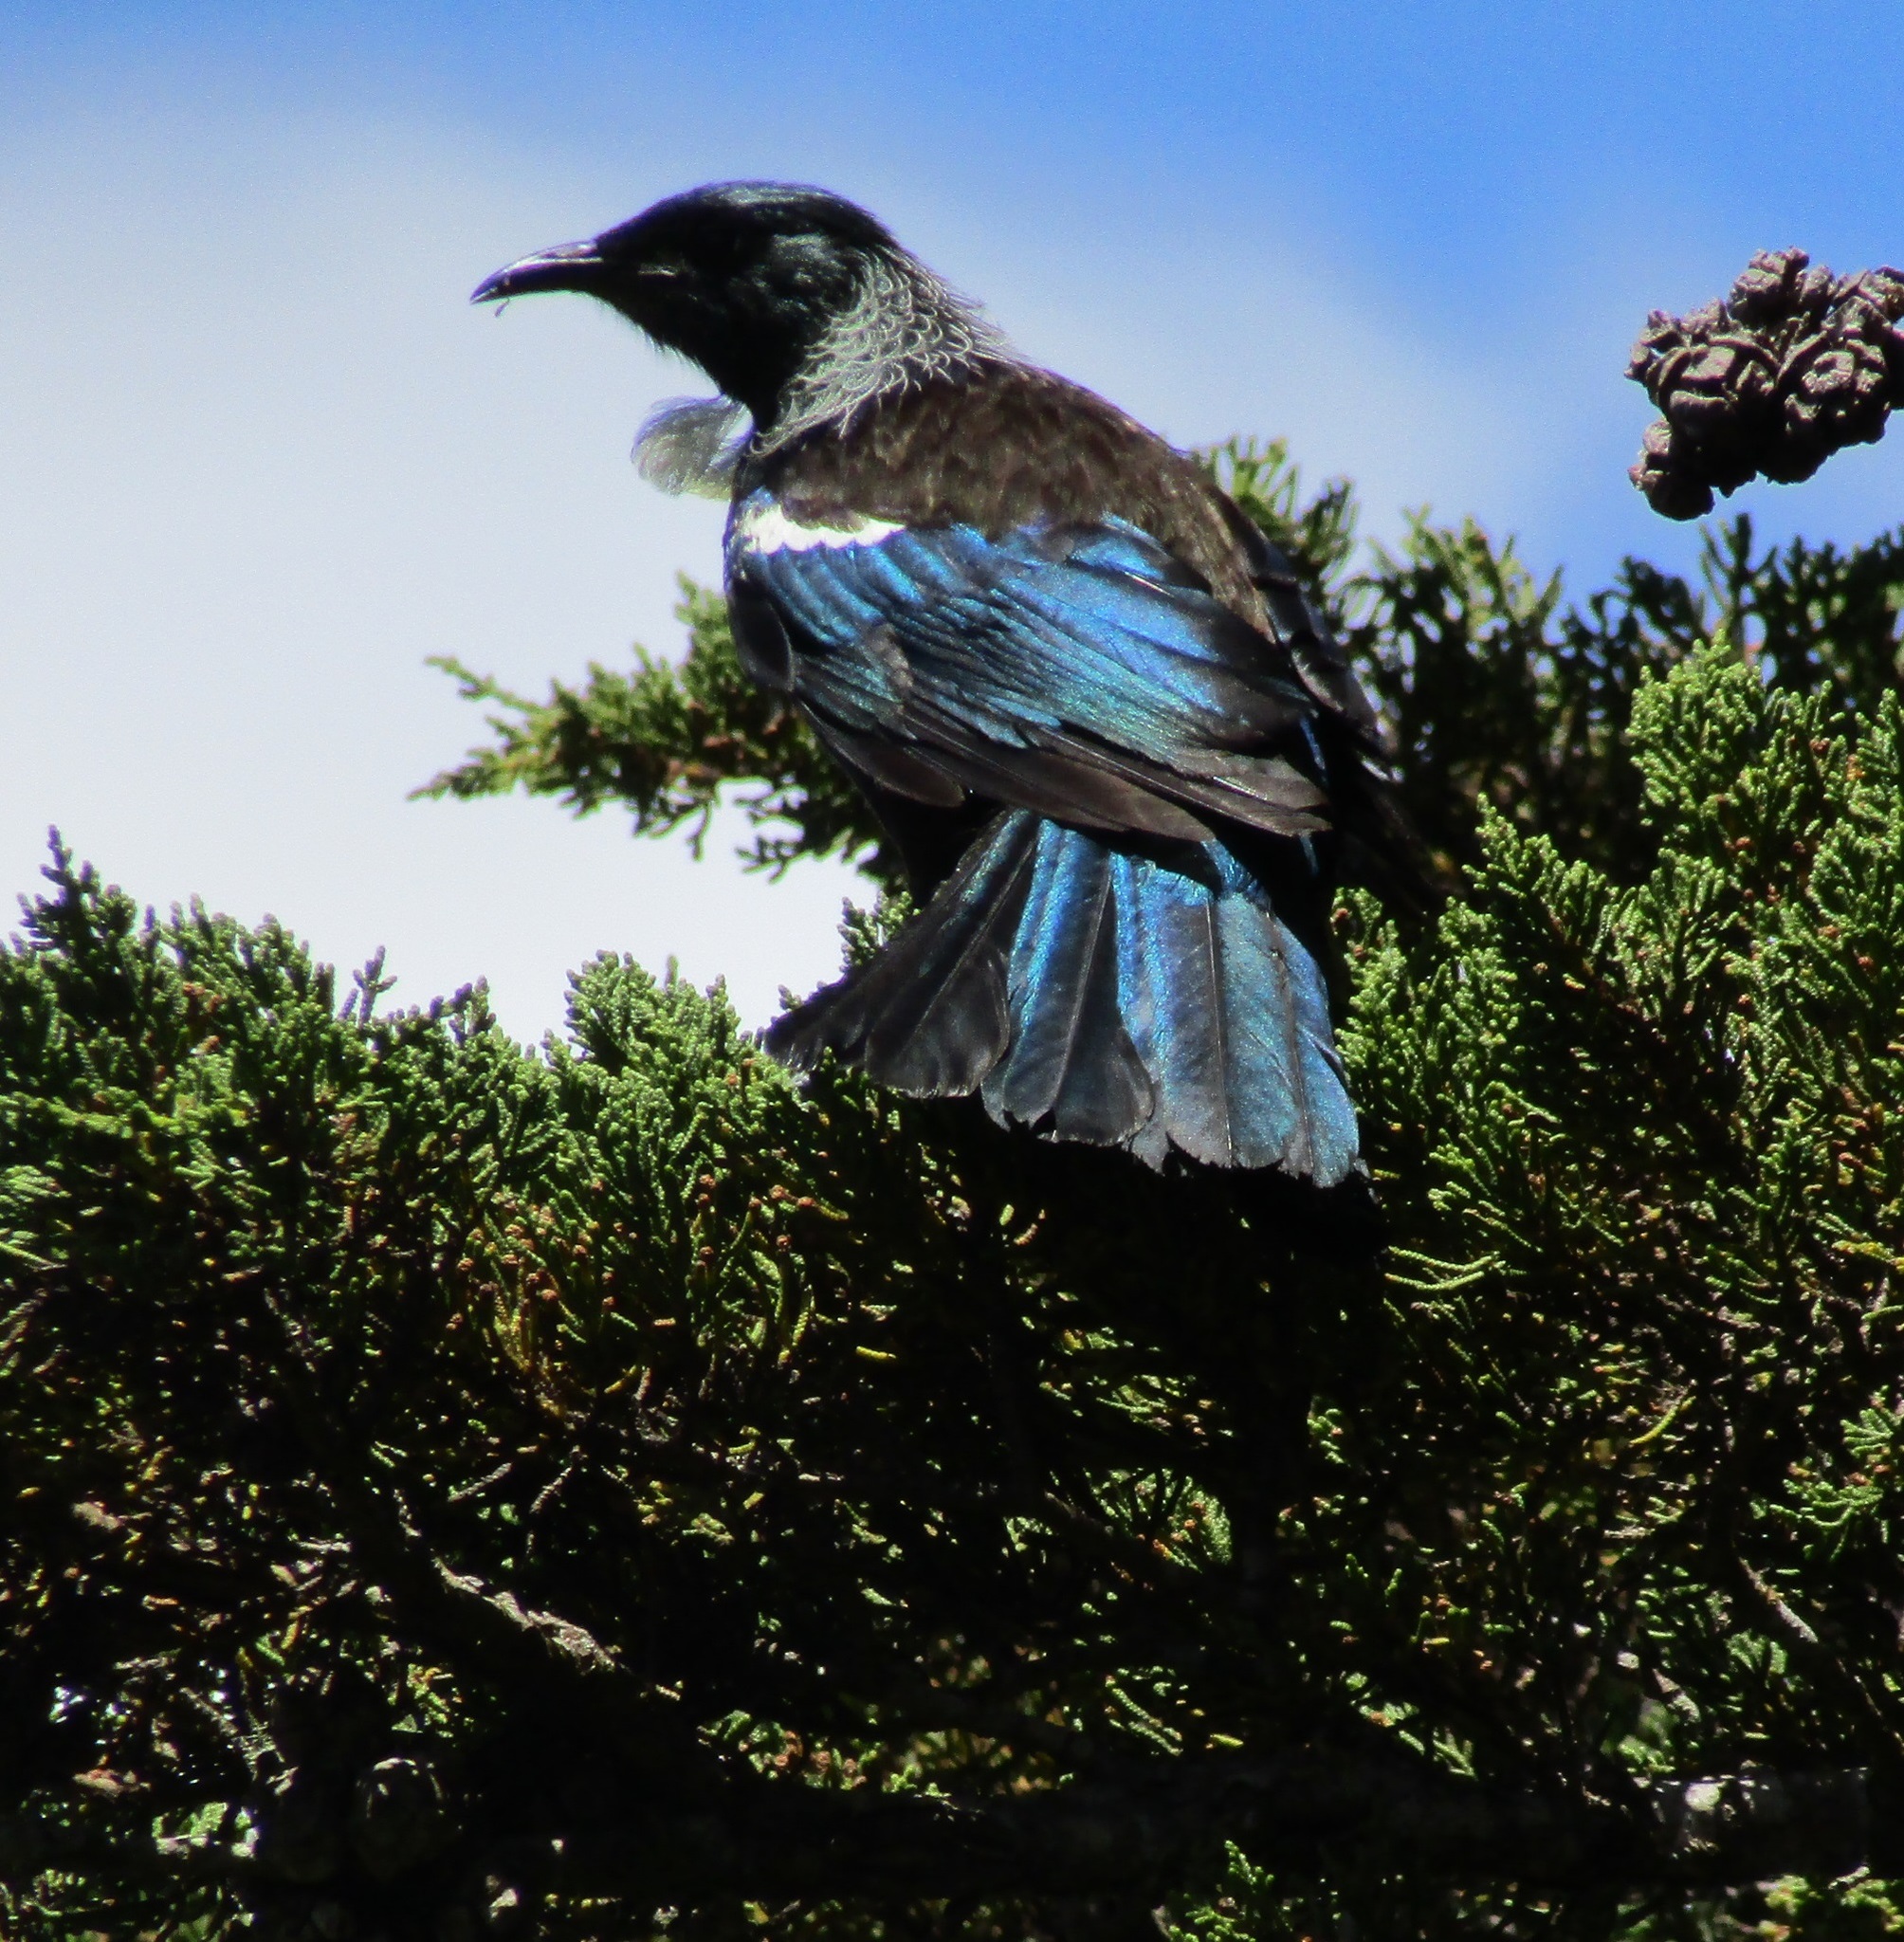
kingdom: Animalia
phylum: Chordata
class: Aves
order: Passeriformes
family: Meliphagidae
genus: Prosthemadera
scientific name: Prosthemadera novaeseelandiae
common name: Tui
